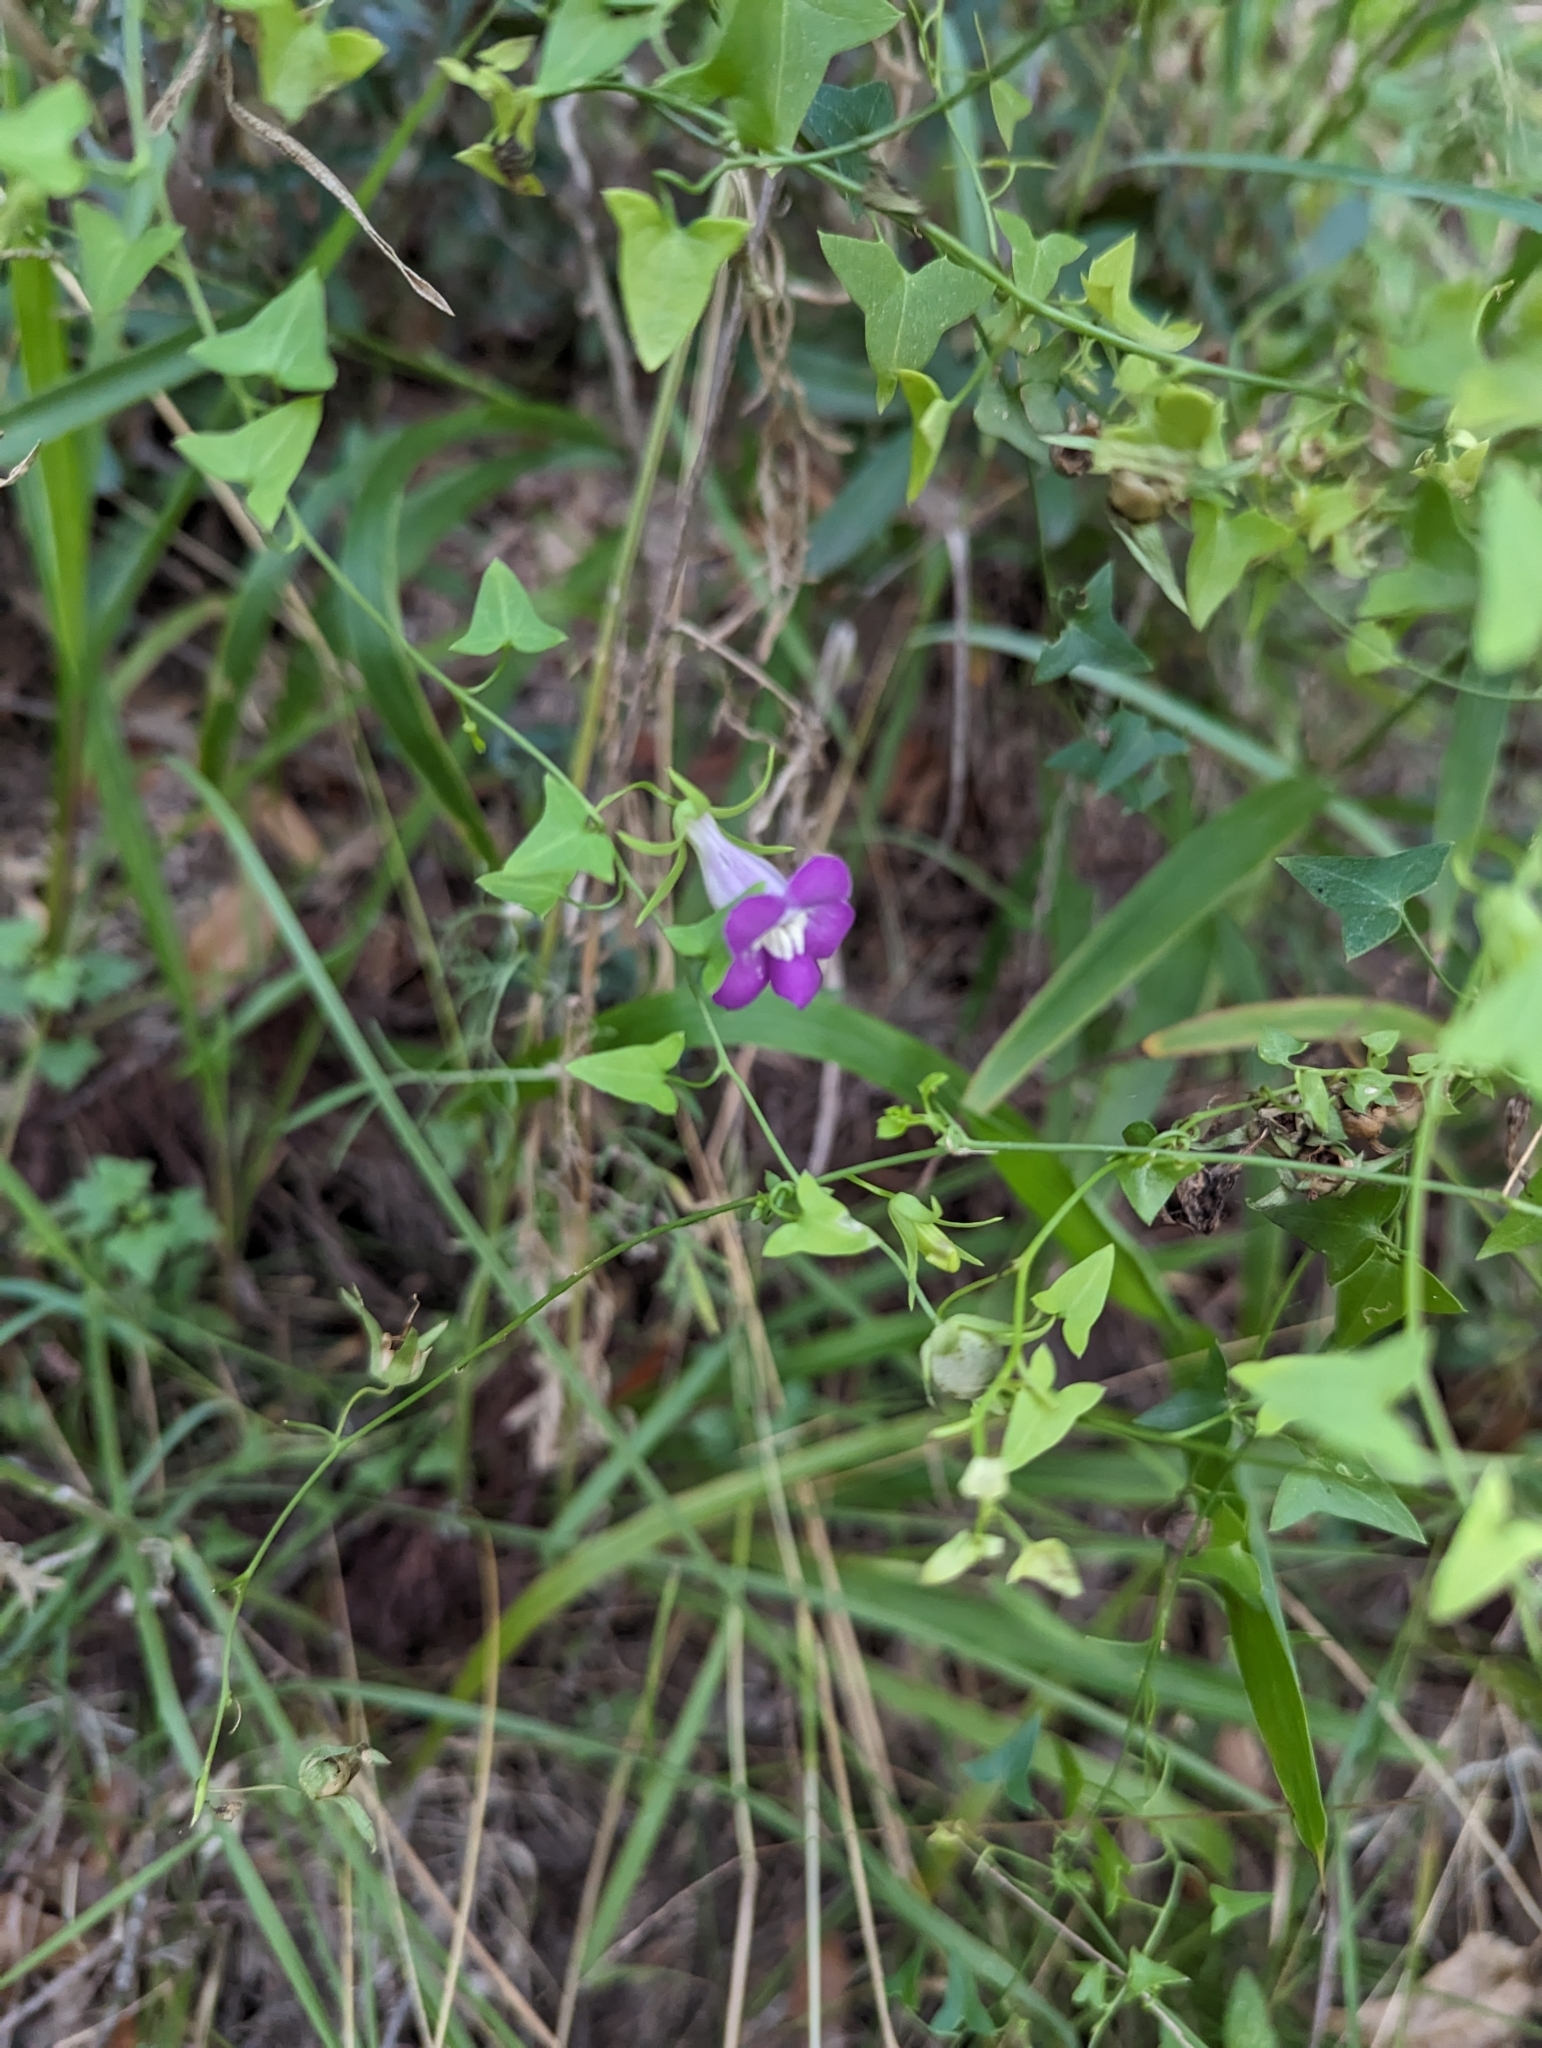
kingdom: Plantae
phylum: Tracheophyta
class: Magnoliopsida
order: Lamiales
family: Plantaginaceae
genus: Maurandella
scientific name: Maurandella antirrhiniflora
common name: Violet twining-snapdragon
